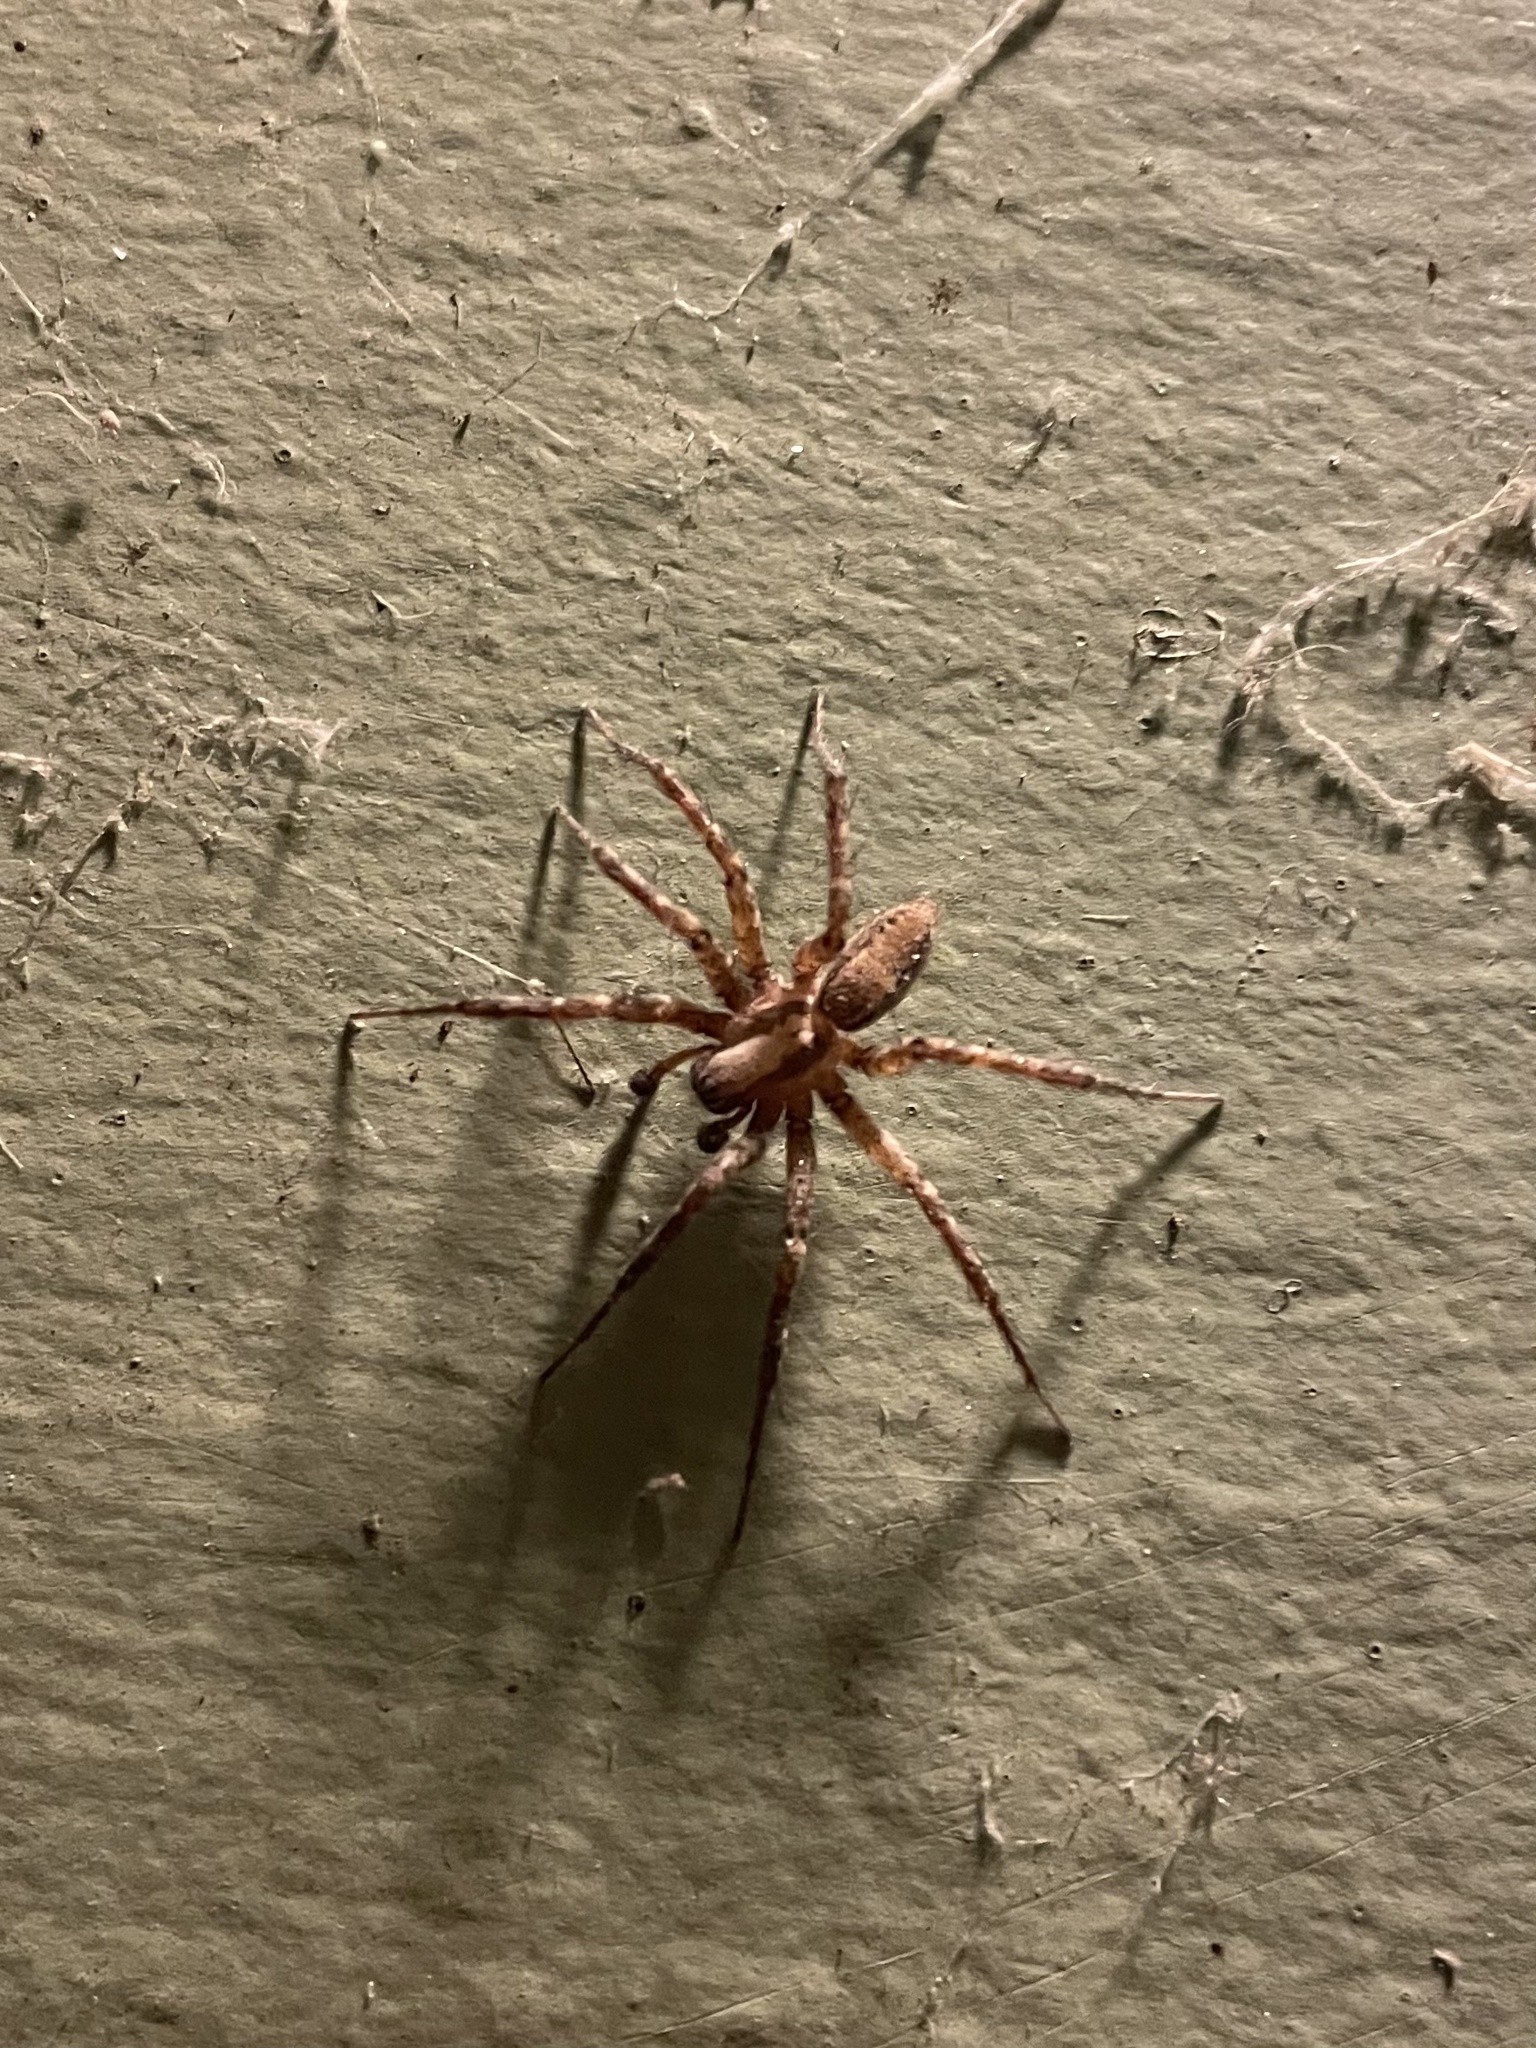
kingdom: Animalia
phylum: Arthropoda
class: Arachnida
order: Araneae
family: Agelenidae
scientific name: Agelenidae
